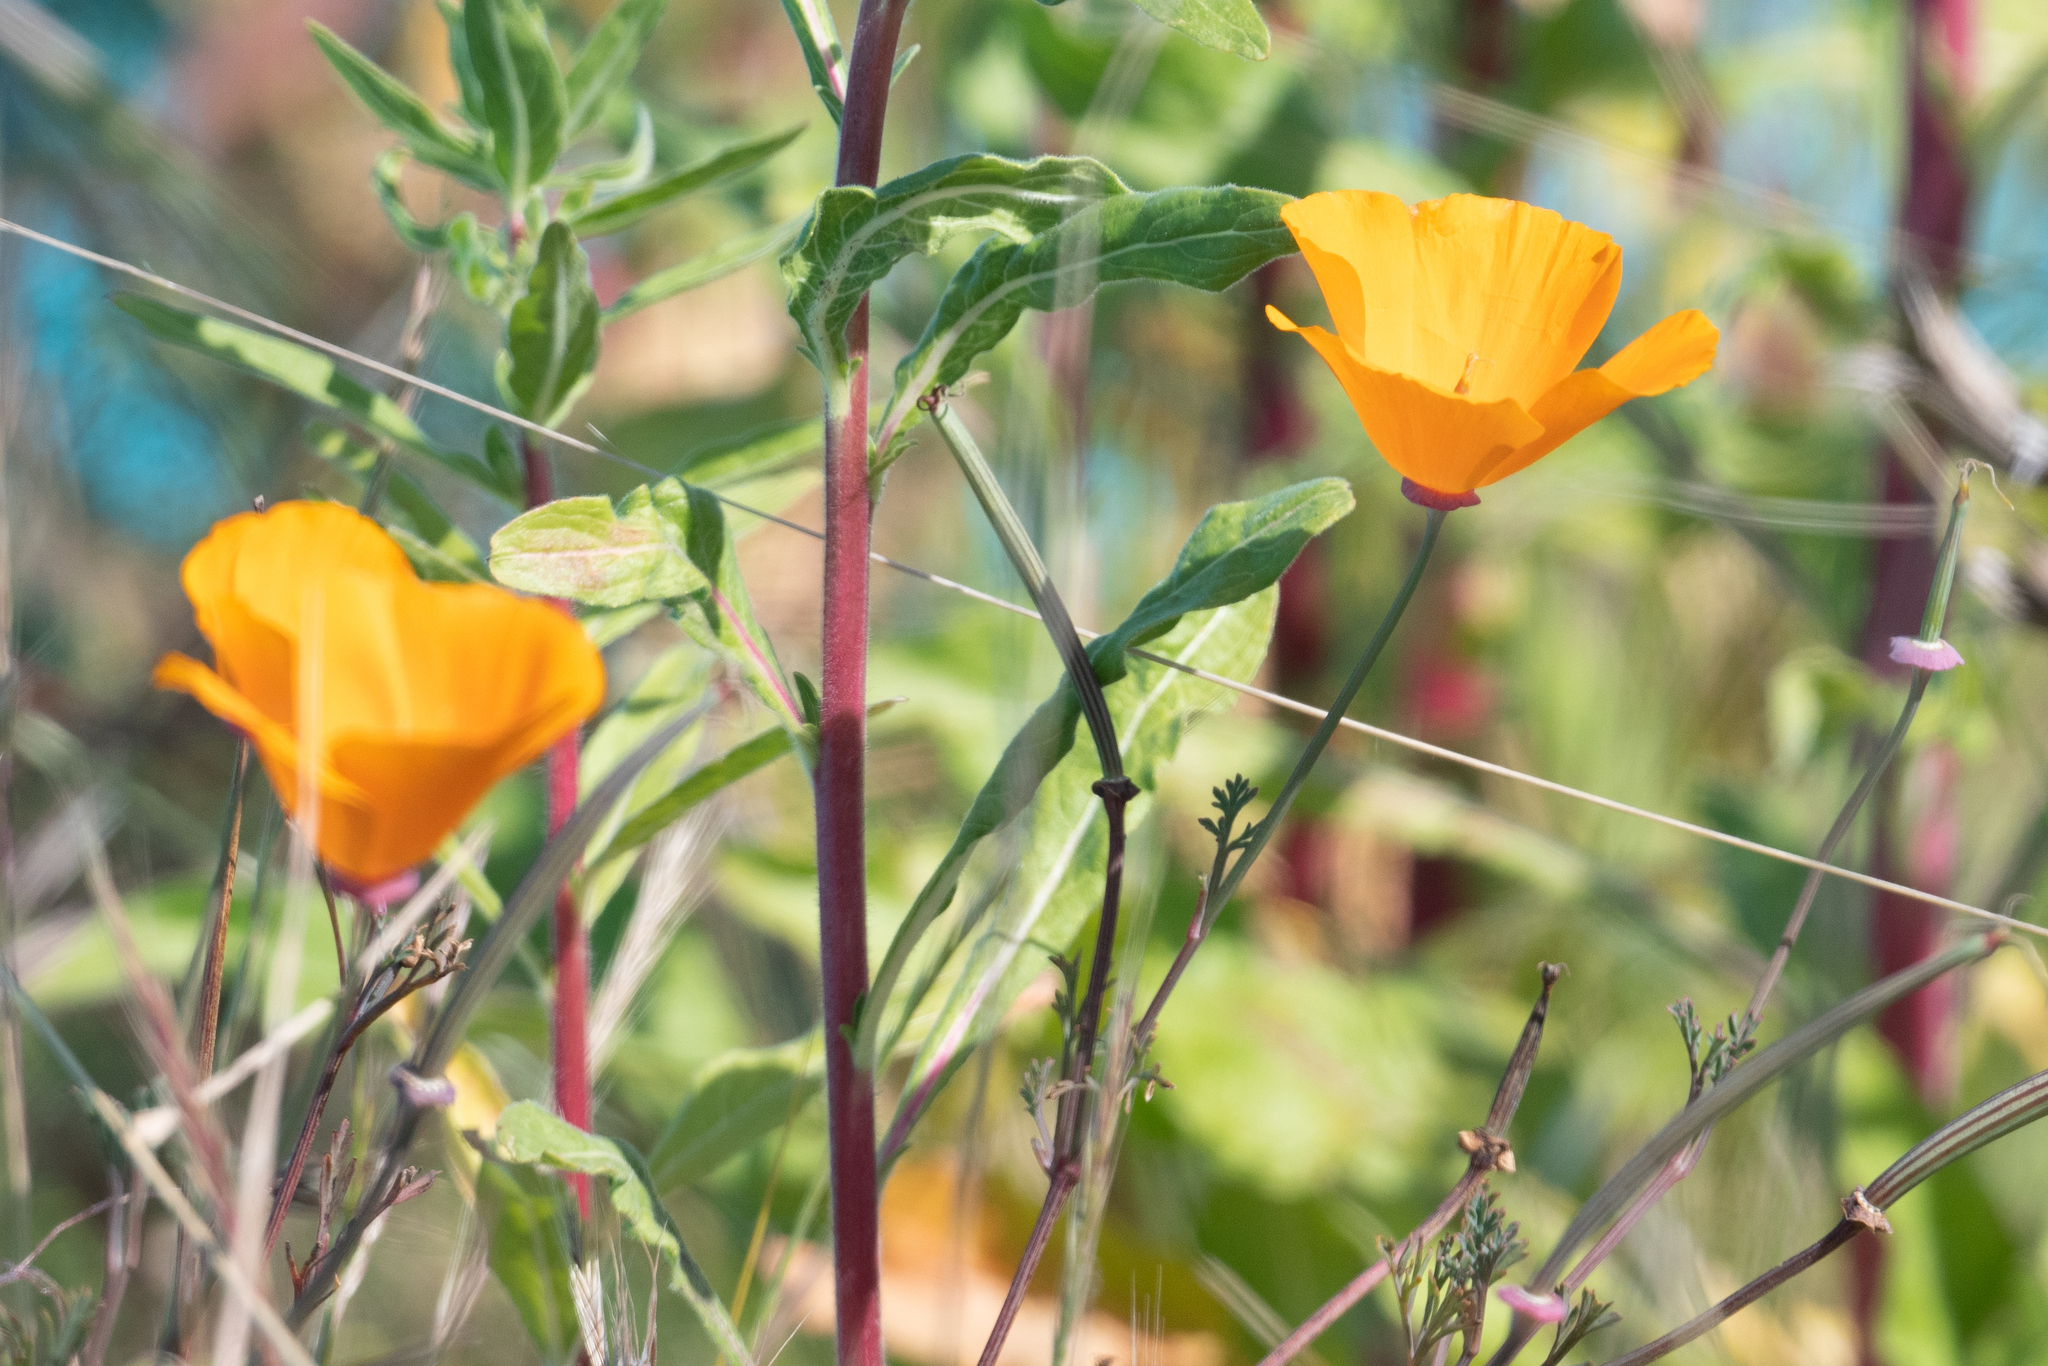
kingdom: Plantae
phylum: Tracheophyta
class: Magnoliopsida
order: Ranunculales
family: Papaveraceae
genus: Eschscholzia
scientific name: Eschscholzia californica
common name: California poppy
